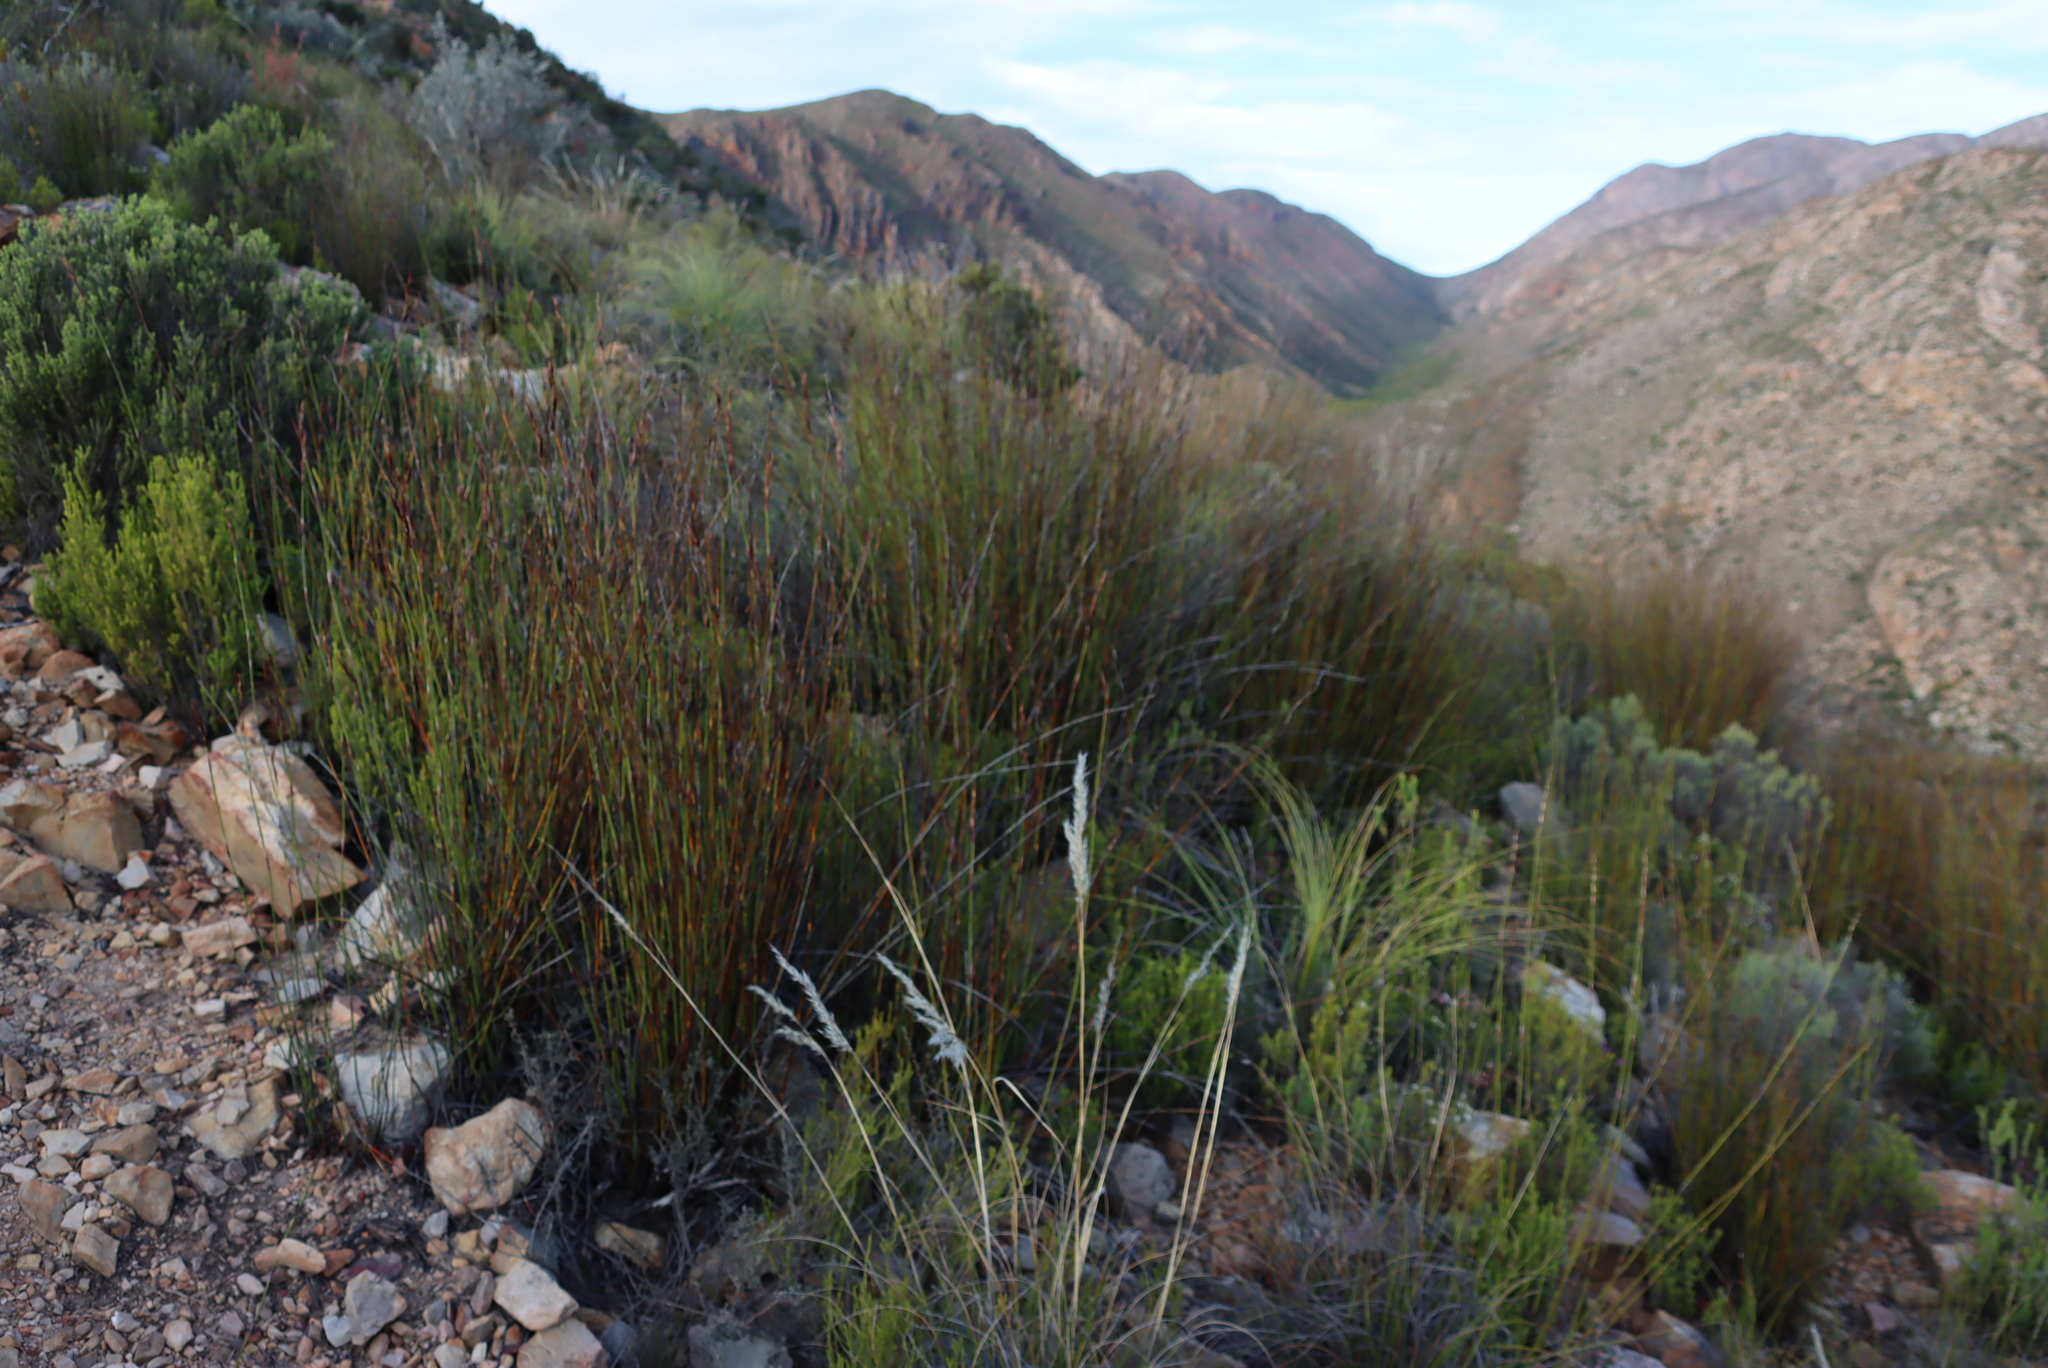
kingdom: Plantae
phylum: Tracheophyta
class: Liliopsida
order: Poales
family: Restionaceae
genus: Cannomois
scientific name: Cannomois scirpoides
